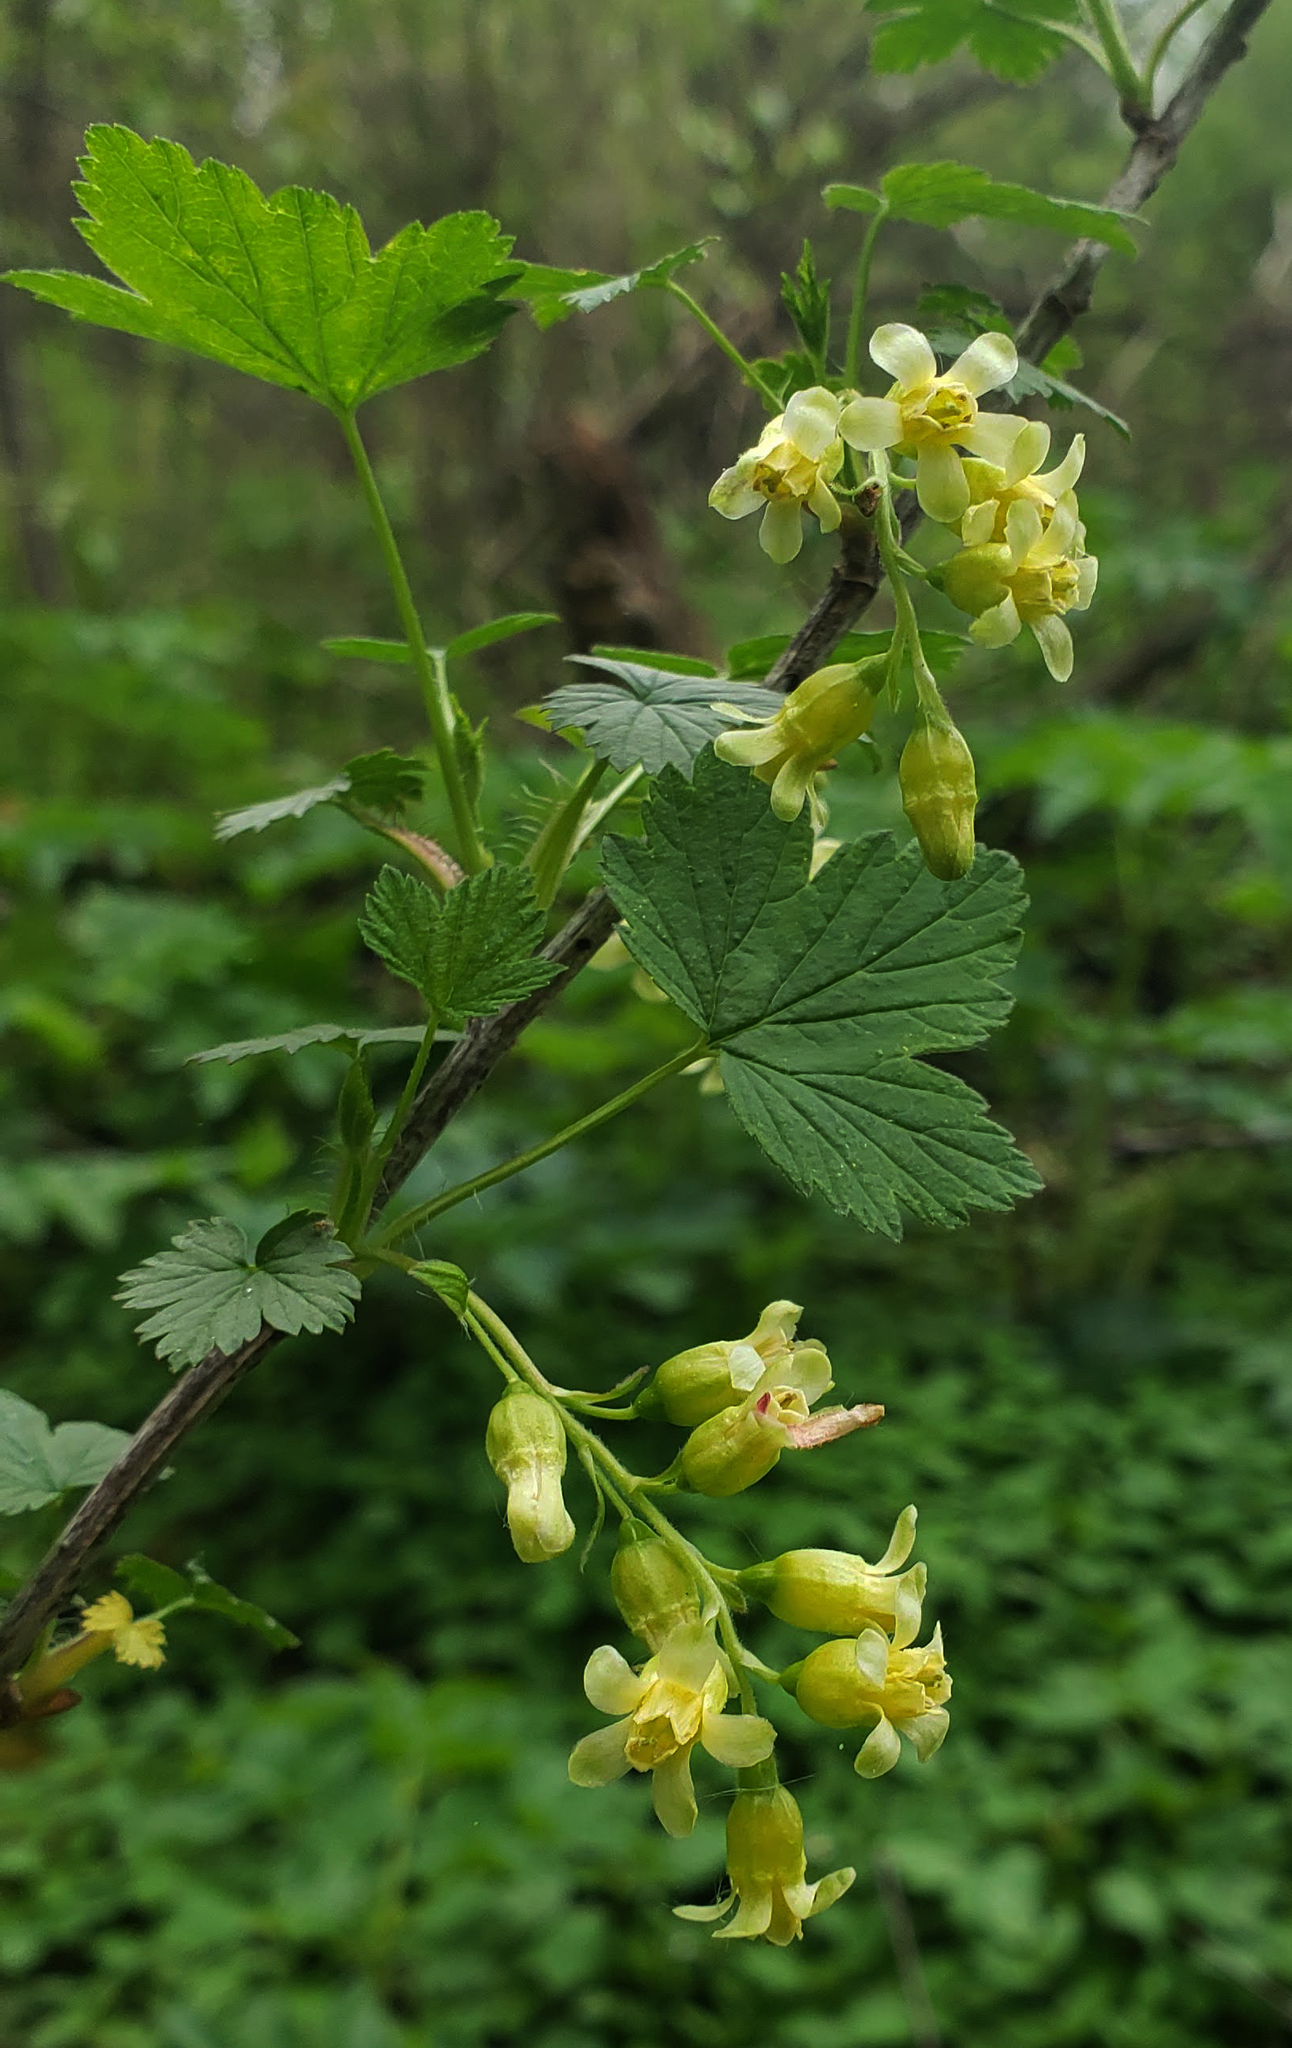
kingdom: Plantae
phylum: Tracheophyta
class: Magnoliopsida
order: Saxifragales
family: Grossulariaceae
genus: Ribes
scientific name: Ribes americanum
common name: American black currant
